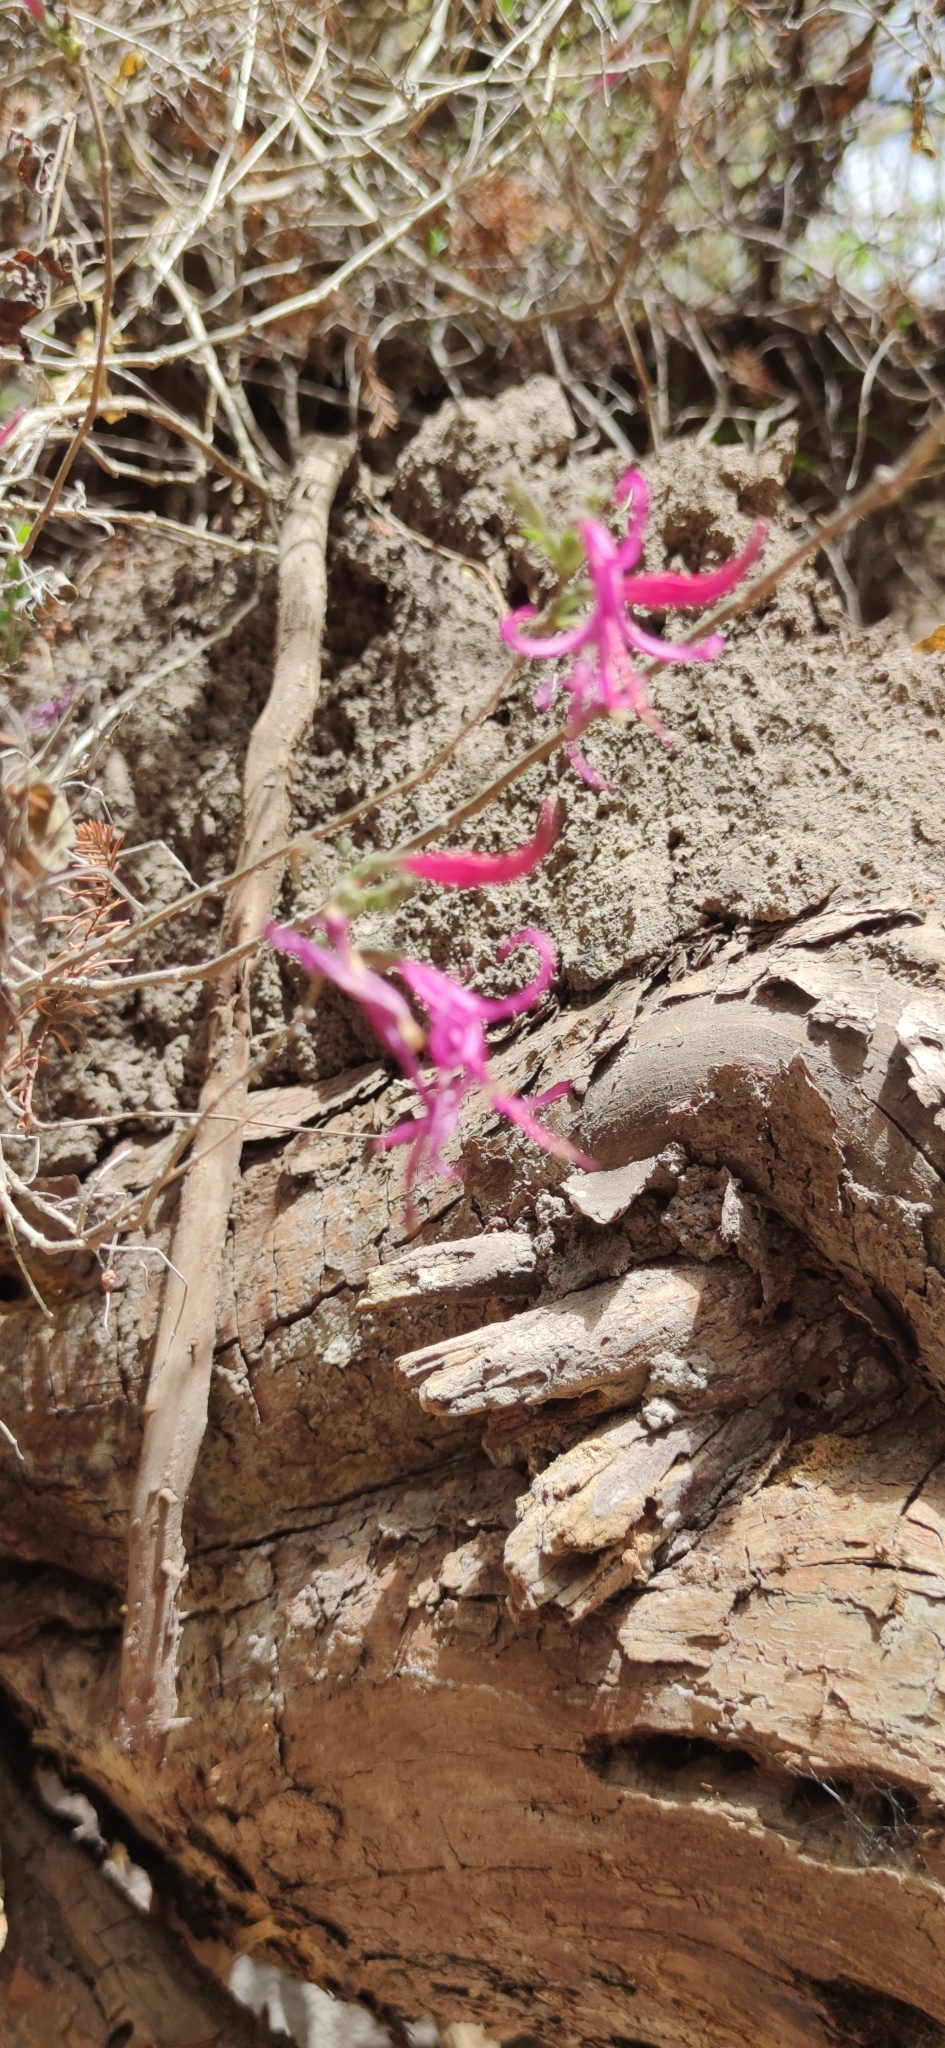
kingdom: Plantae
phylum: Tracheophyta
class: Magnoliopsida
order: Lamiales
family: Acanthaceae
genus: Anisacanthus
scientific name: Anisacanthus puberulus
